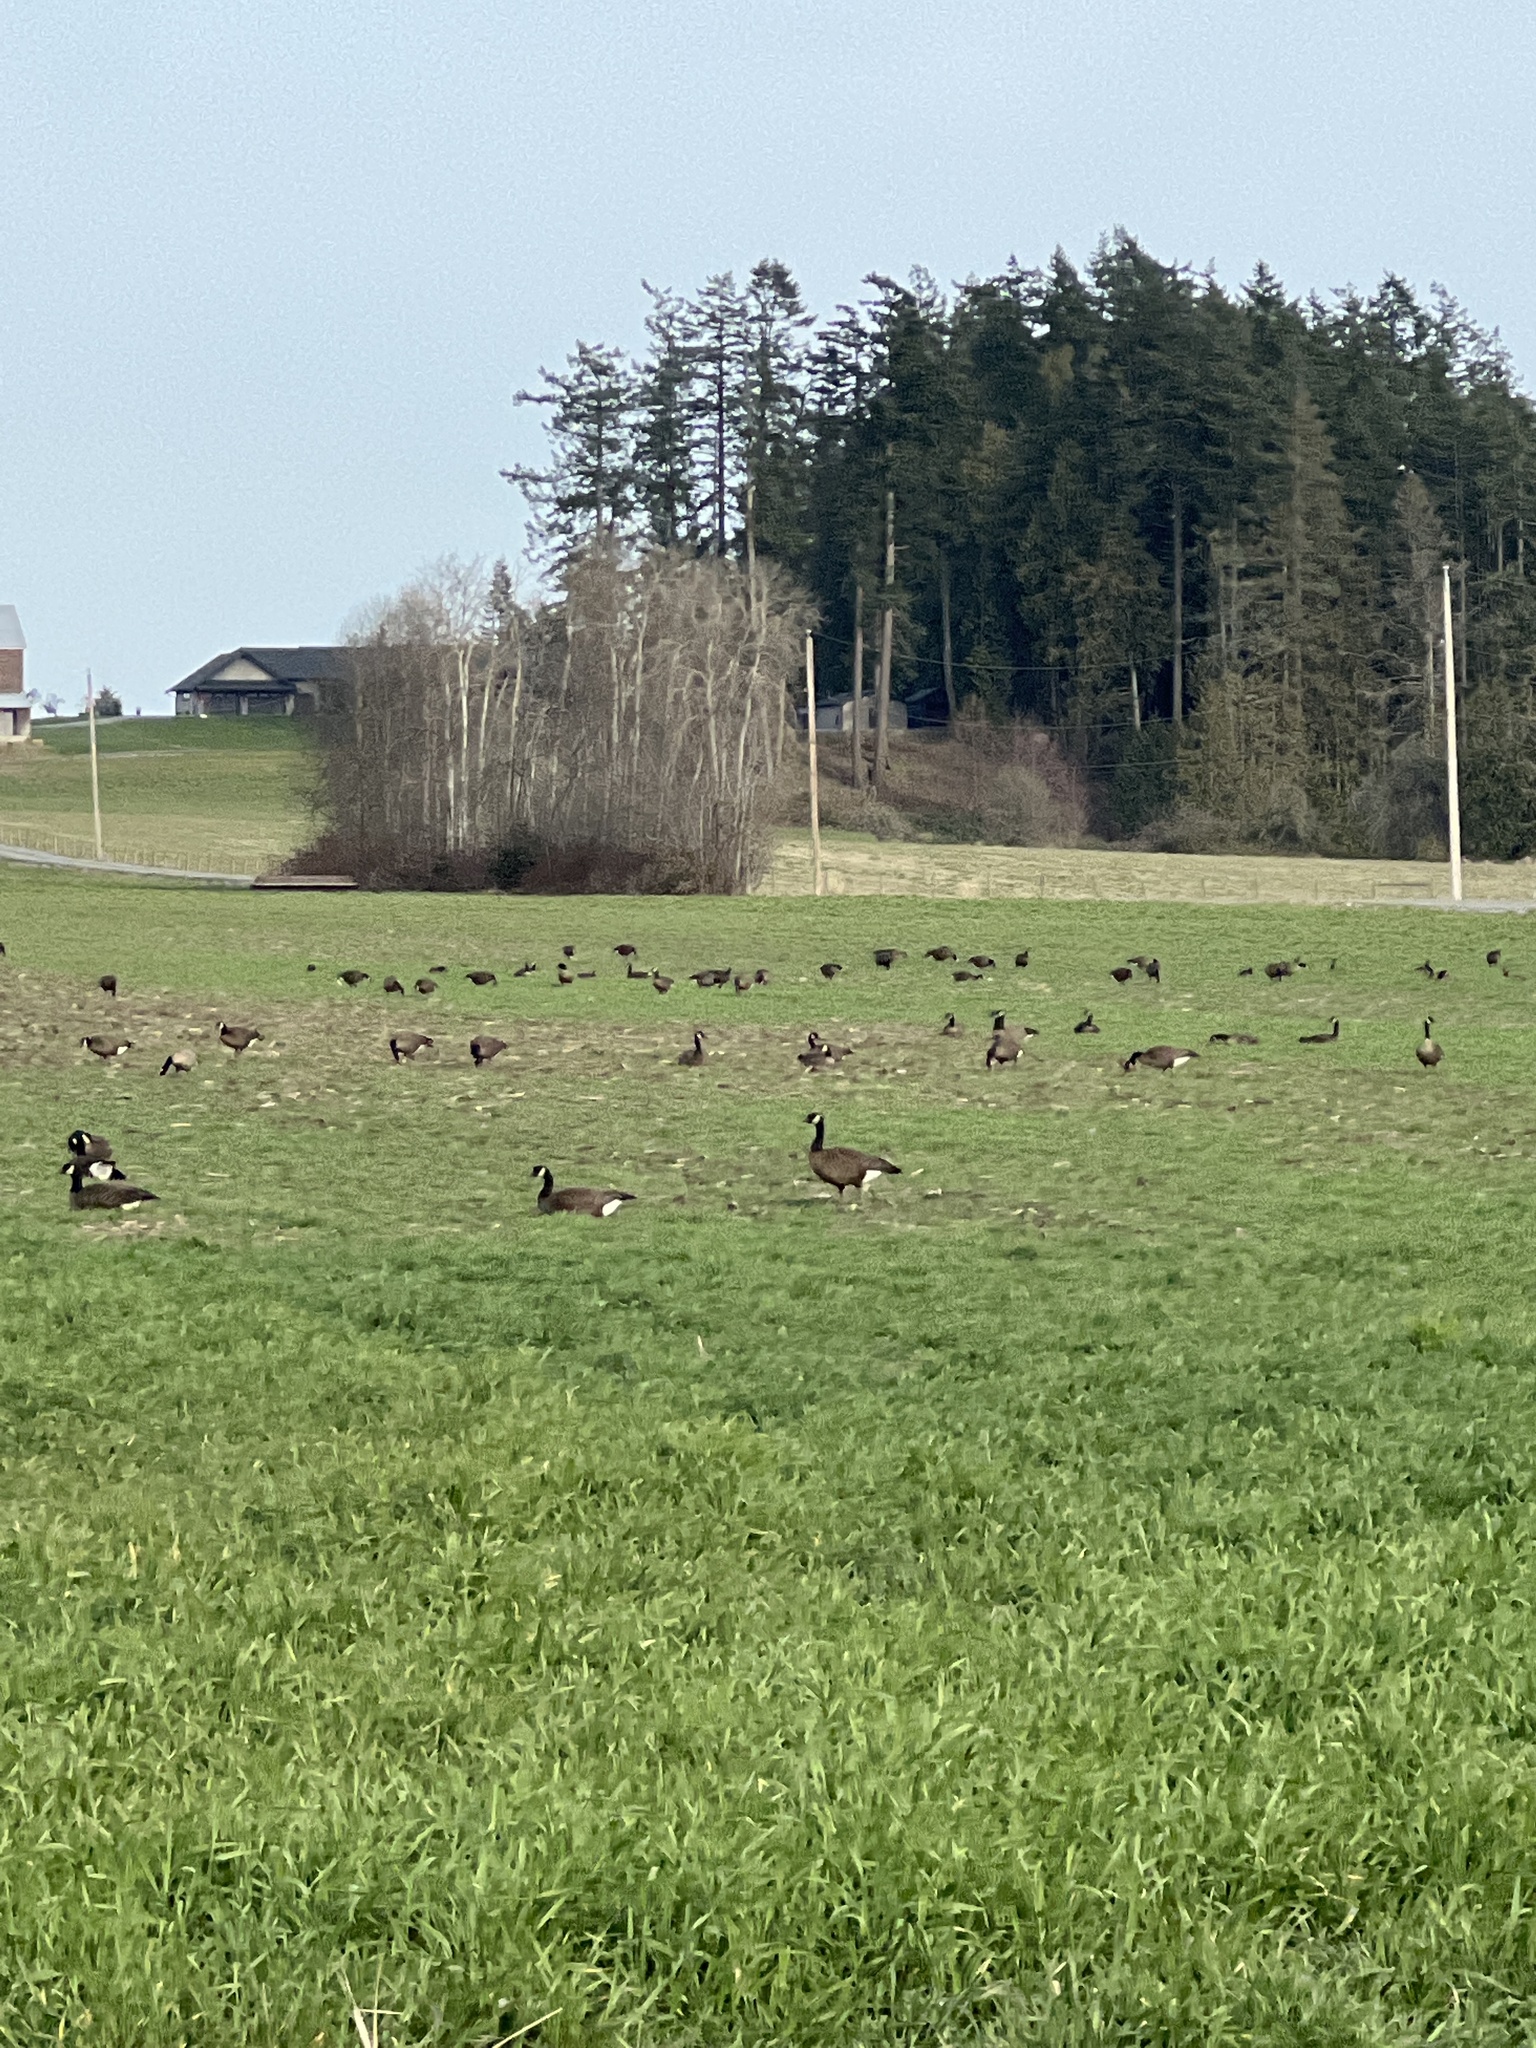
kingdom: Animalia
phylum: Chordata
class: Aves
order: Anseriformes
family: Anatidae
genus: Branta
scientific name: Branta canadensis
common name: Canada goose
